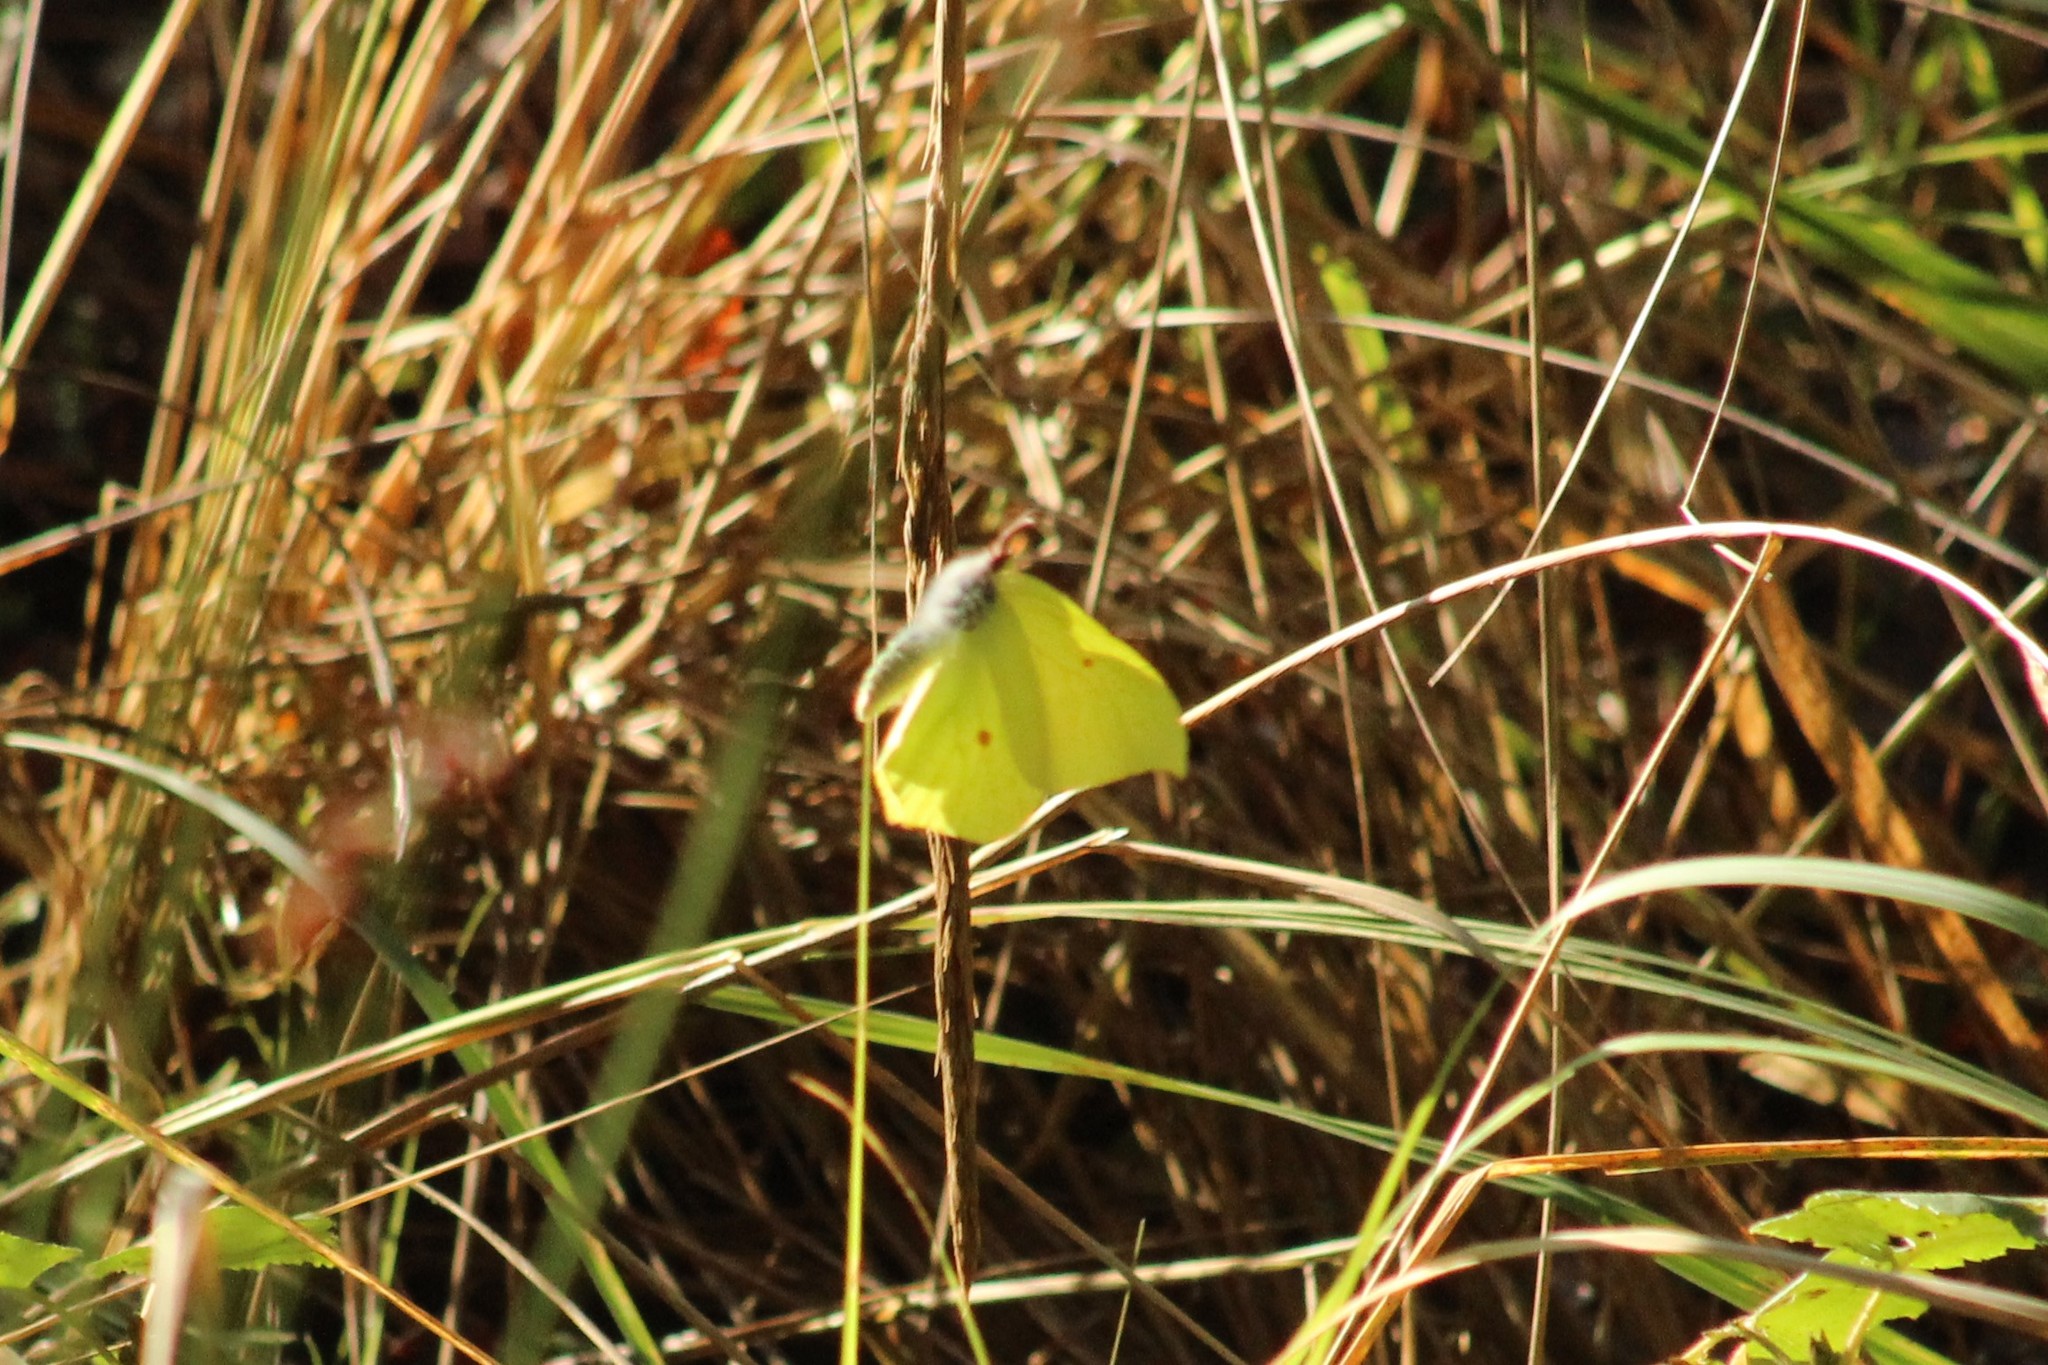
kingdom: Animalia
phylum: Arthropoda
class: Insecta
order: Lepidoptera
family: Pieridae
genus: Gonepteryx
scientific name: Gonepteryx rhamni
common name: Brimstone
